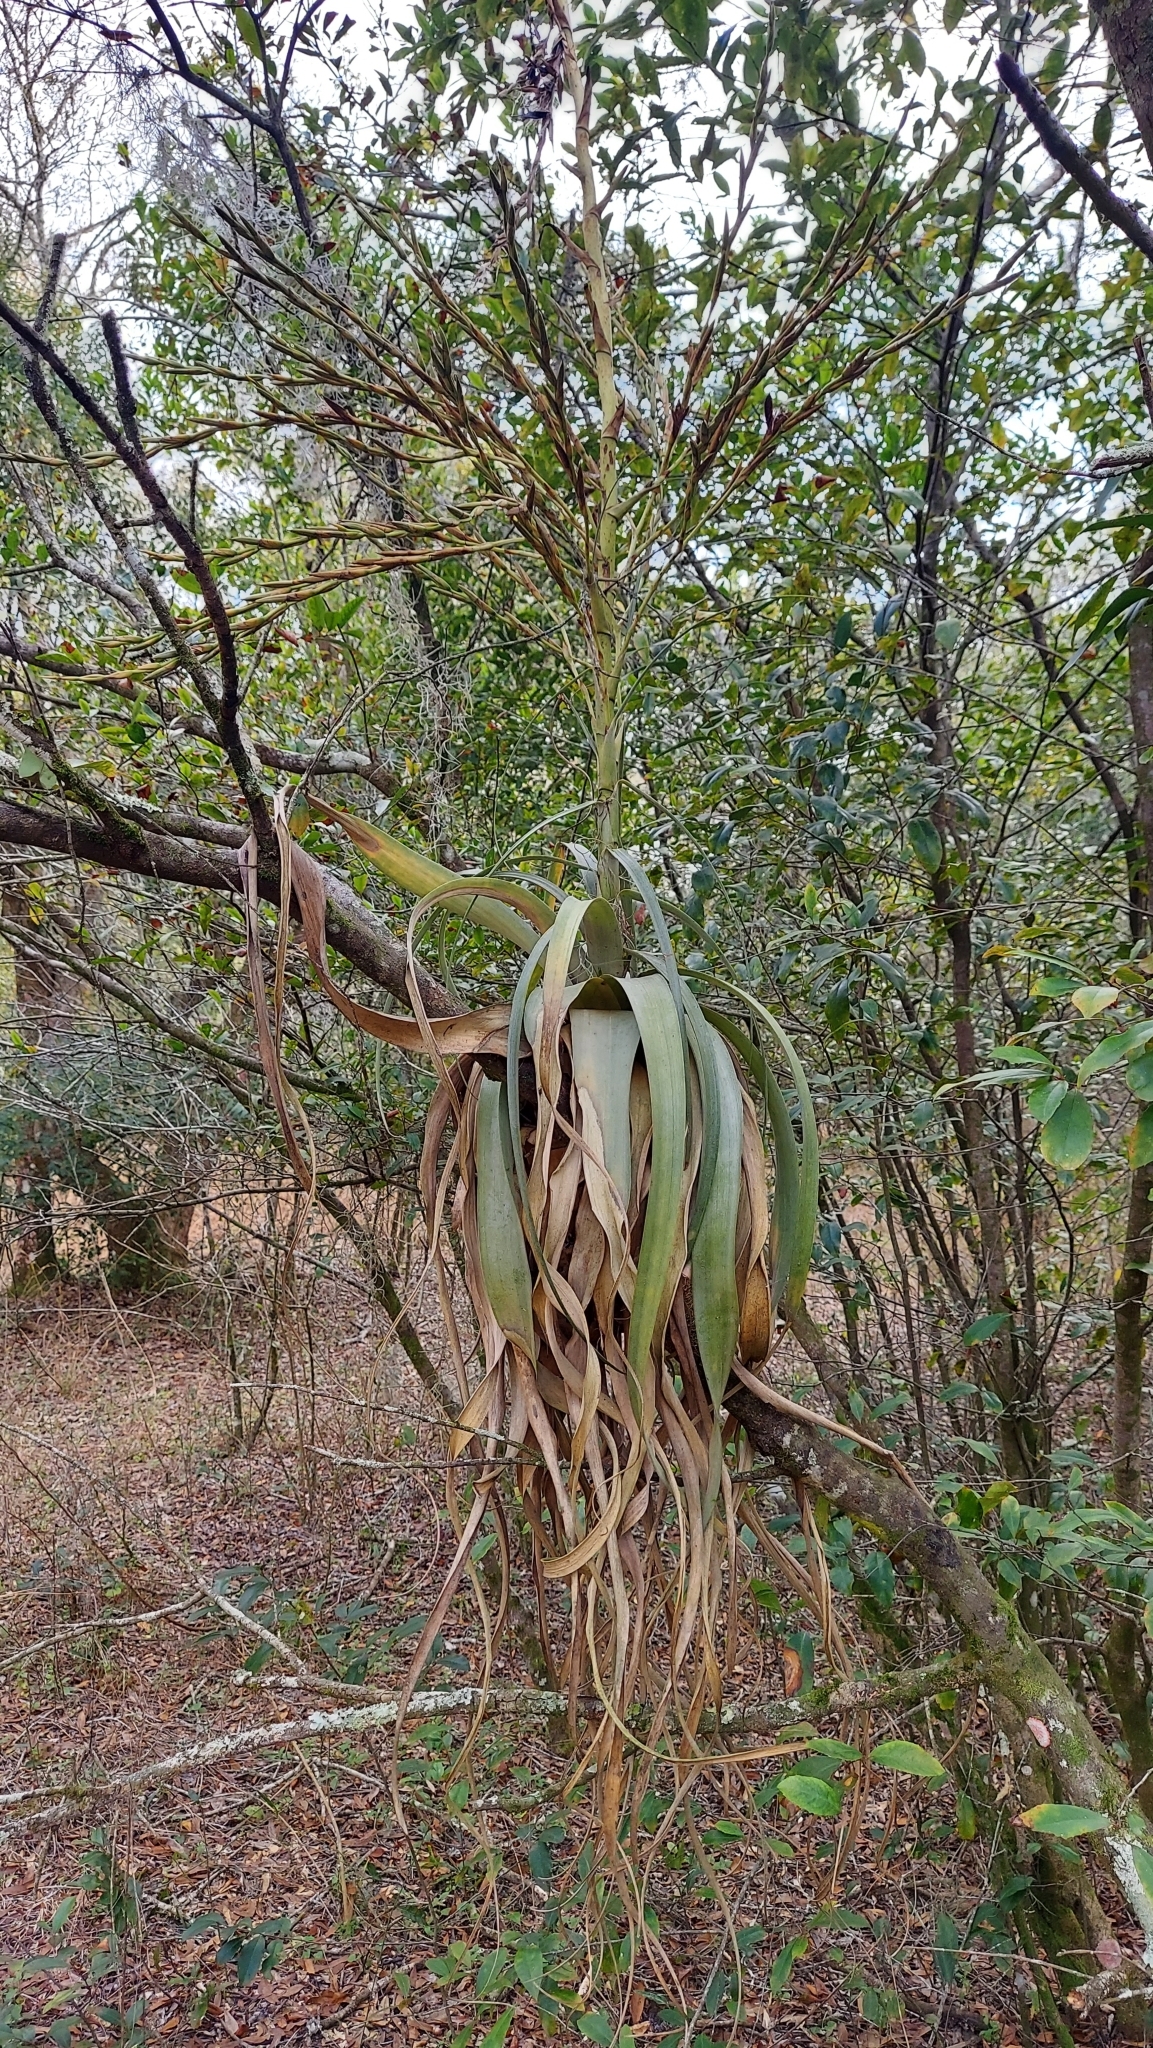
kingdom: Plantae
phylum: Tracheophyta
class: Liliopsida
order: Poales
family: Bromeliaceae
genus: Tillandsia
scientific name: Tillandsia utriculata
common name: Wild pine
